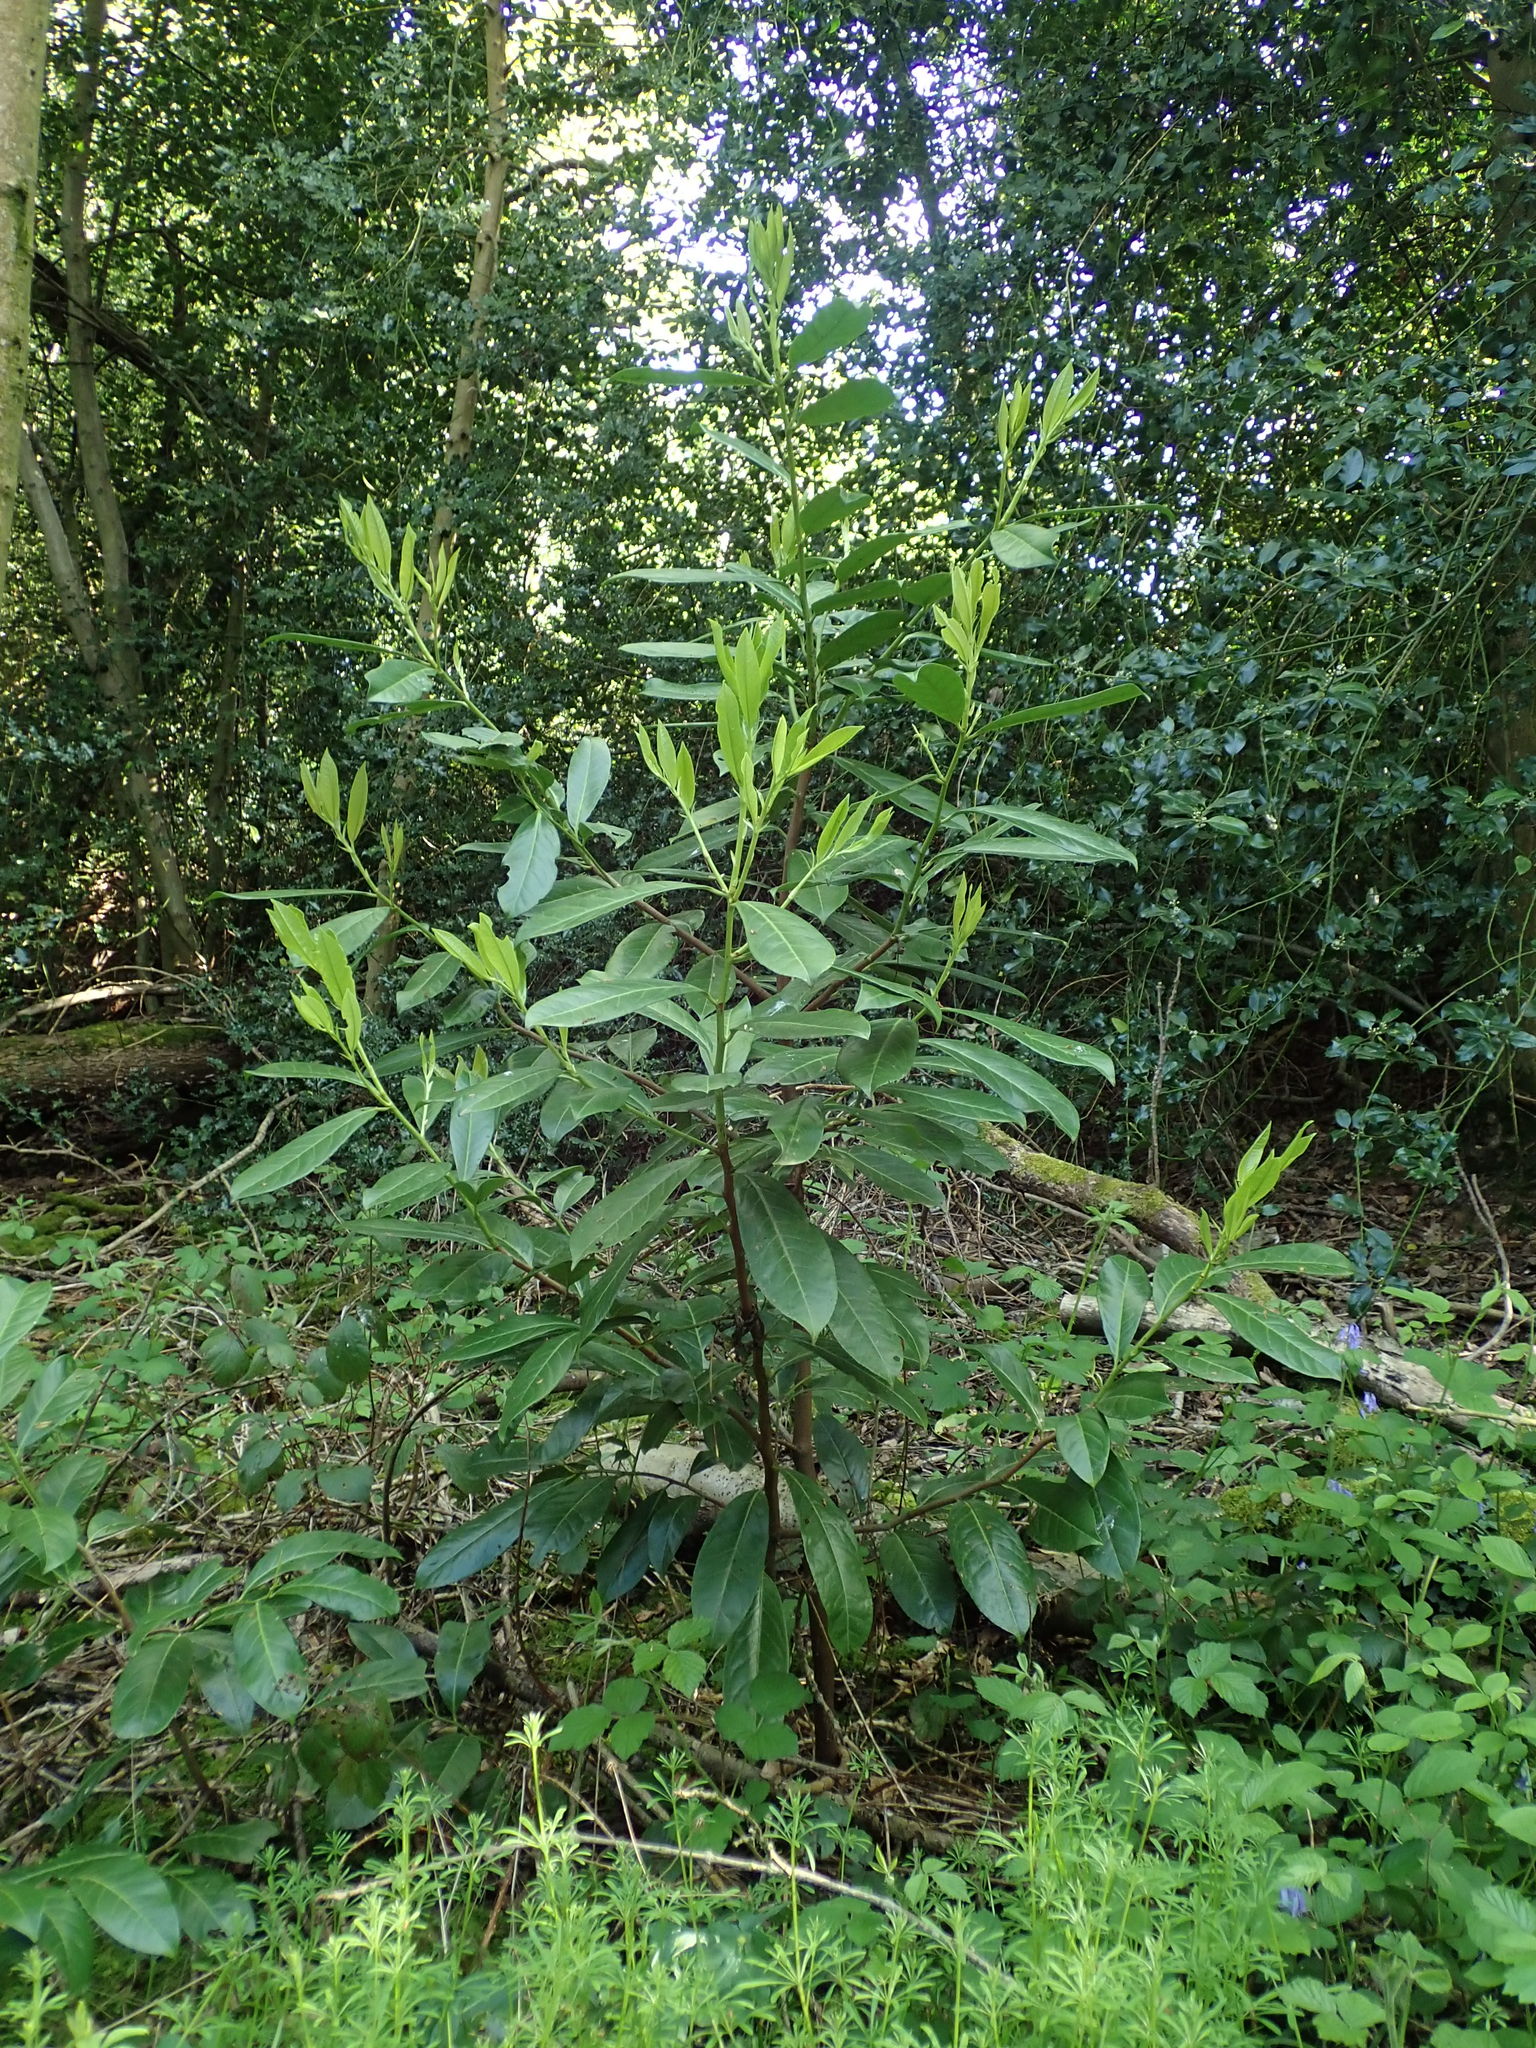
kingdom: Plantae
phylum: Tracheophyta
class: Magnoliopsida
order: Rosales
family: Rosaceae
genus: Prunus
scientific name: Prunus laurocerasus
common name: Cherry laurel
